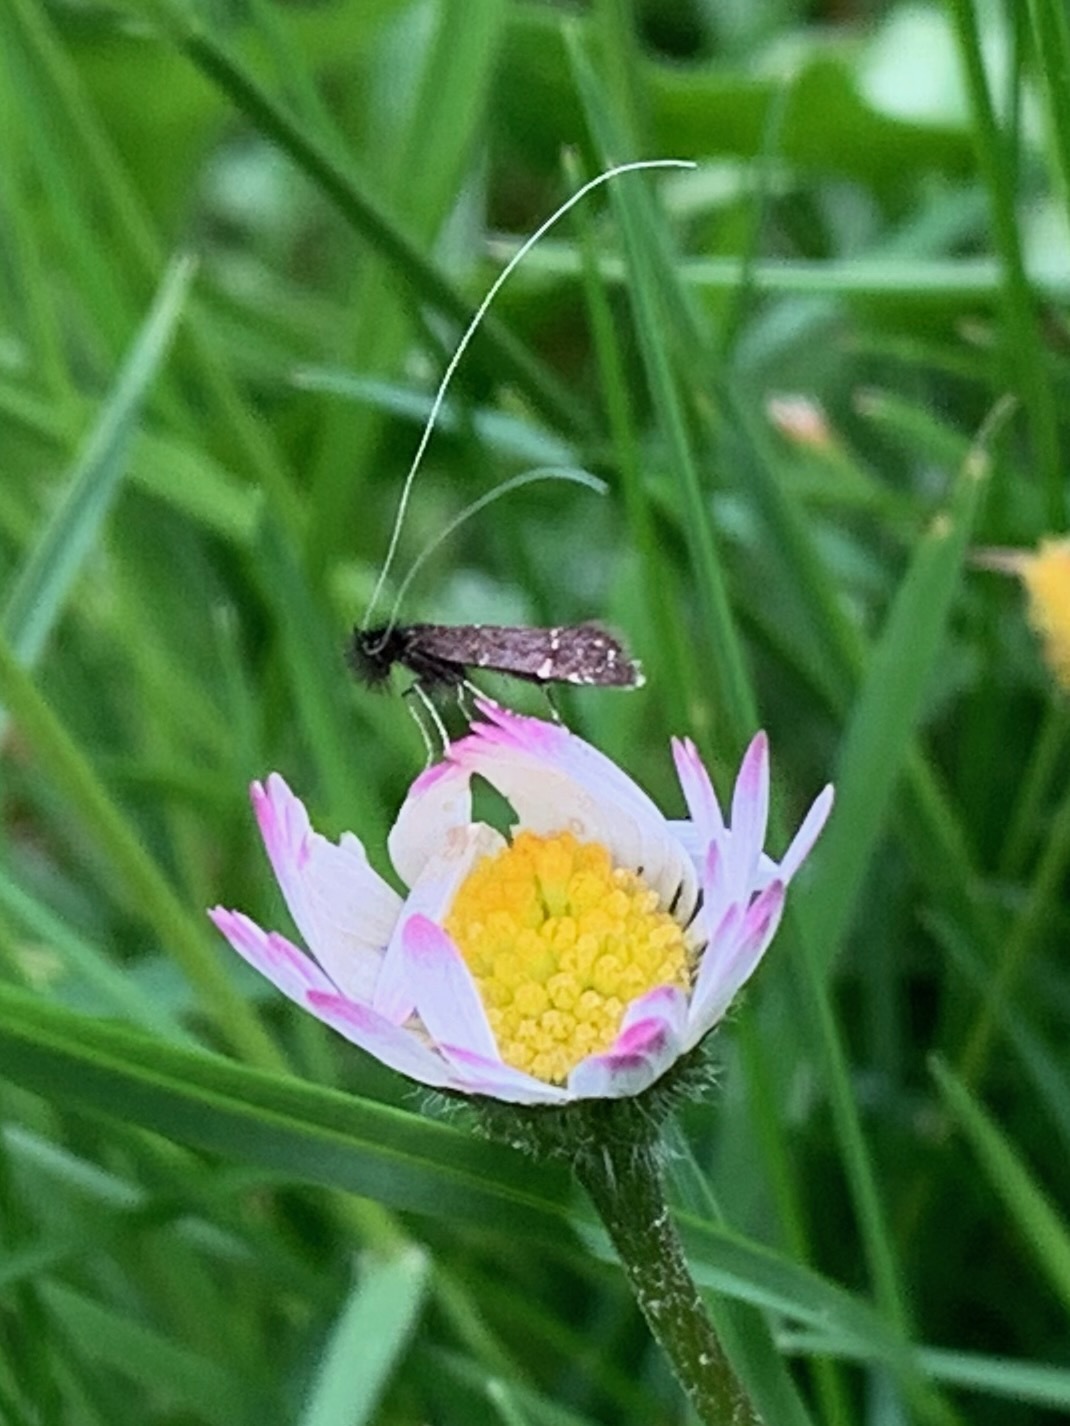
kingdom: Animalia
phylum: Arthropoda
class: Insecta
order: Lepidoptera
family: Adelidae
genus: Adela
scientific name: Adela septentrionella
